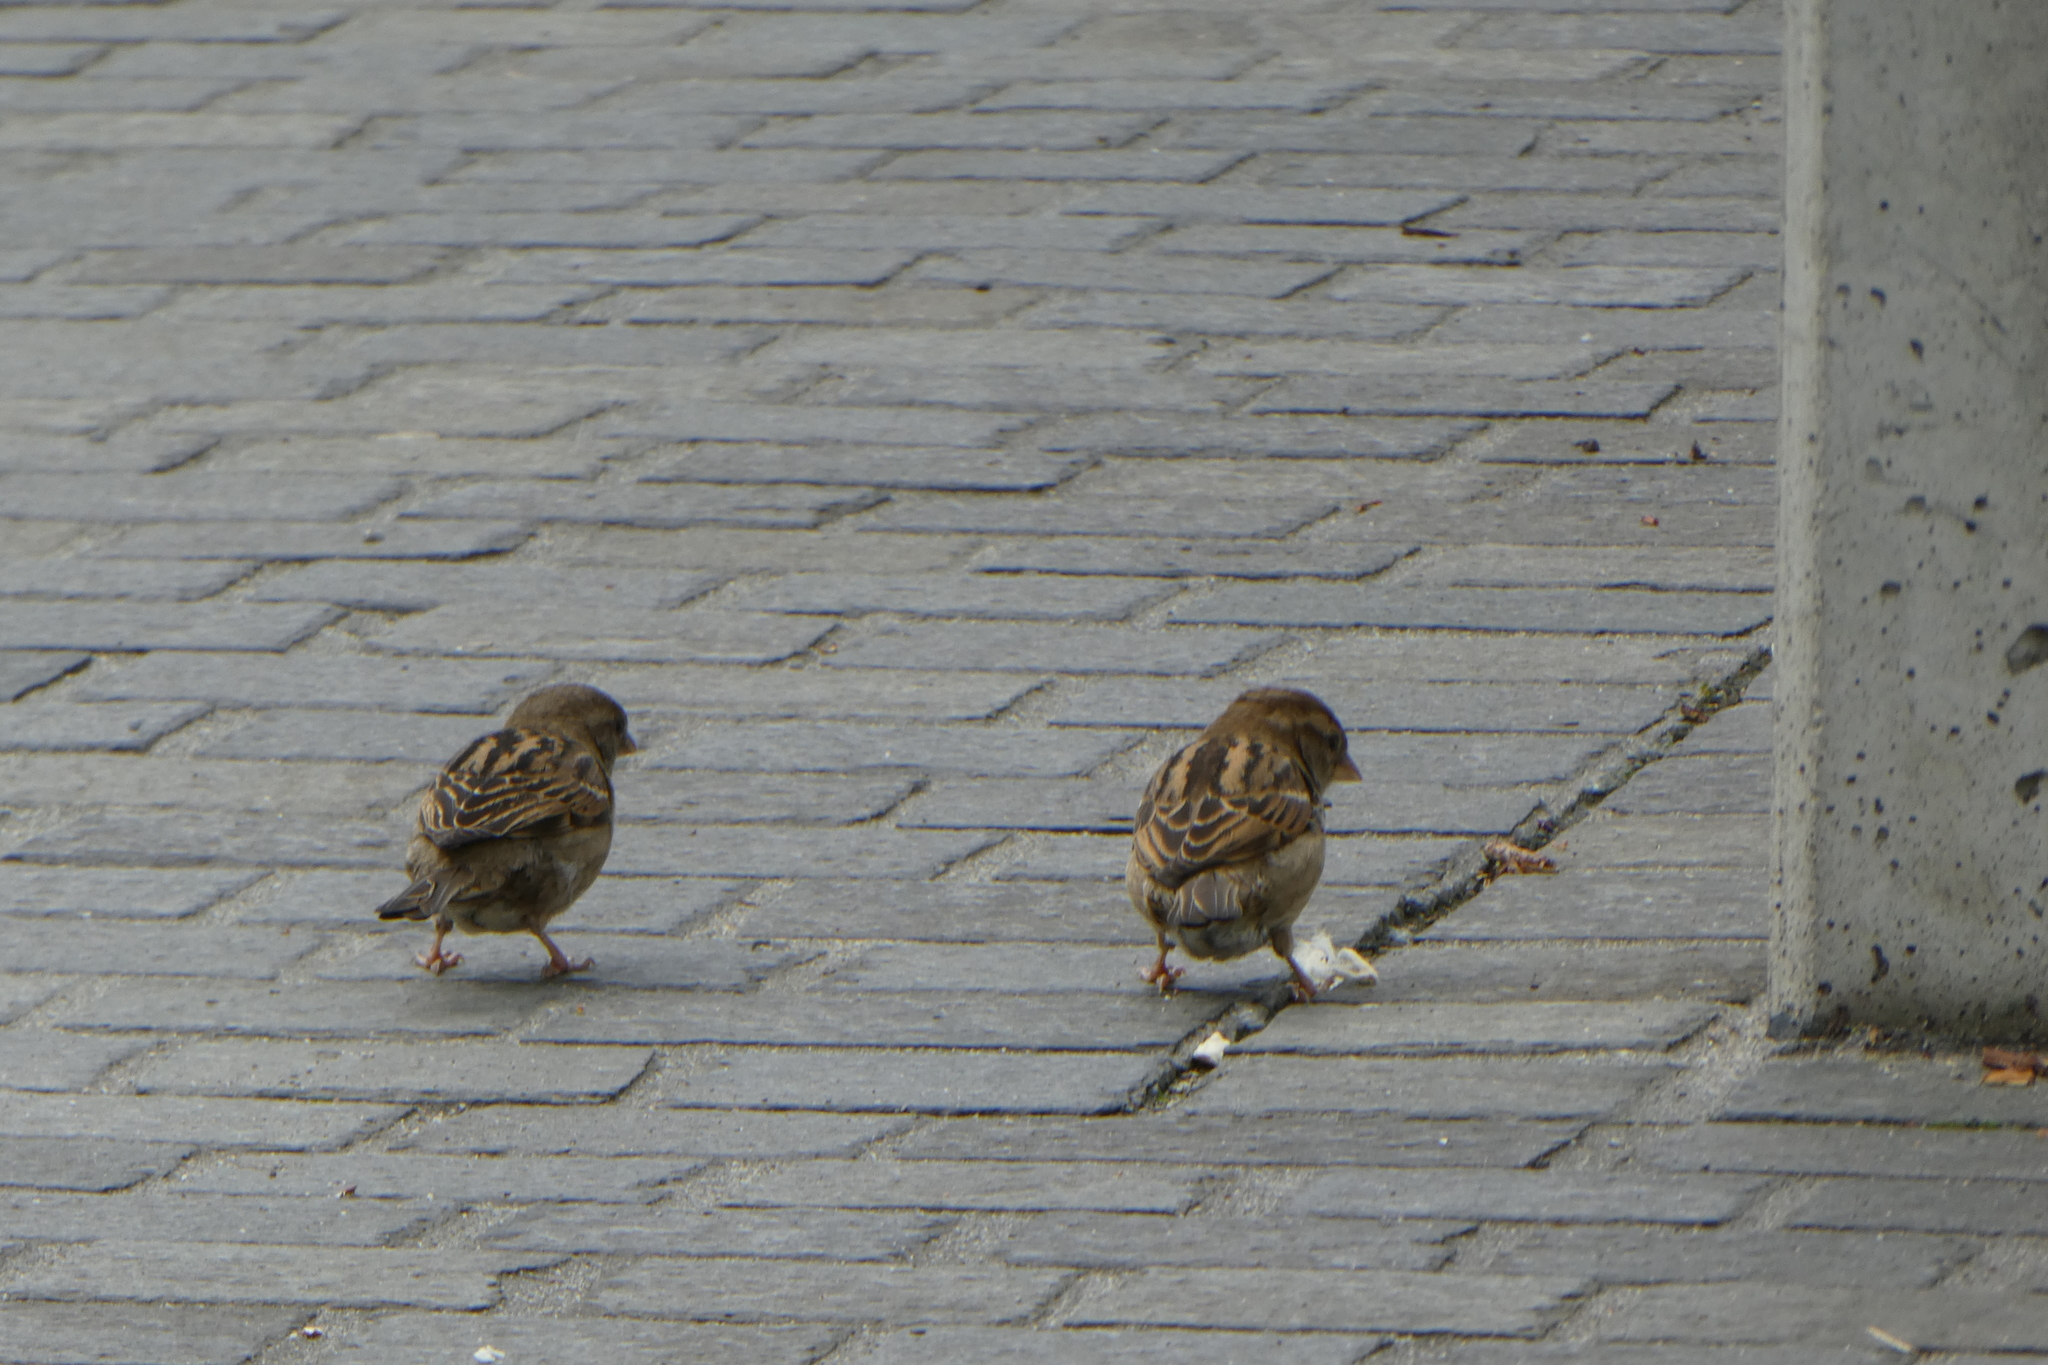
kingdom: Animalia
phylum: Chordata
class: Aves
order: Passeriformes
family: Passeridae
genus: Passer
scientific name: Passer domesticus
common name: House sparrow
